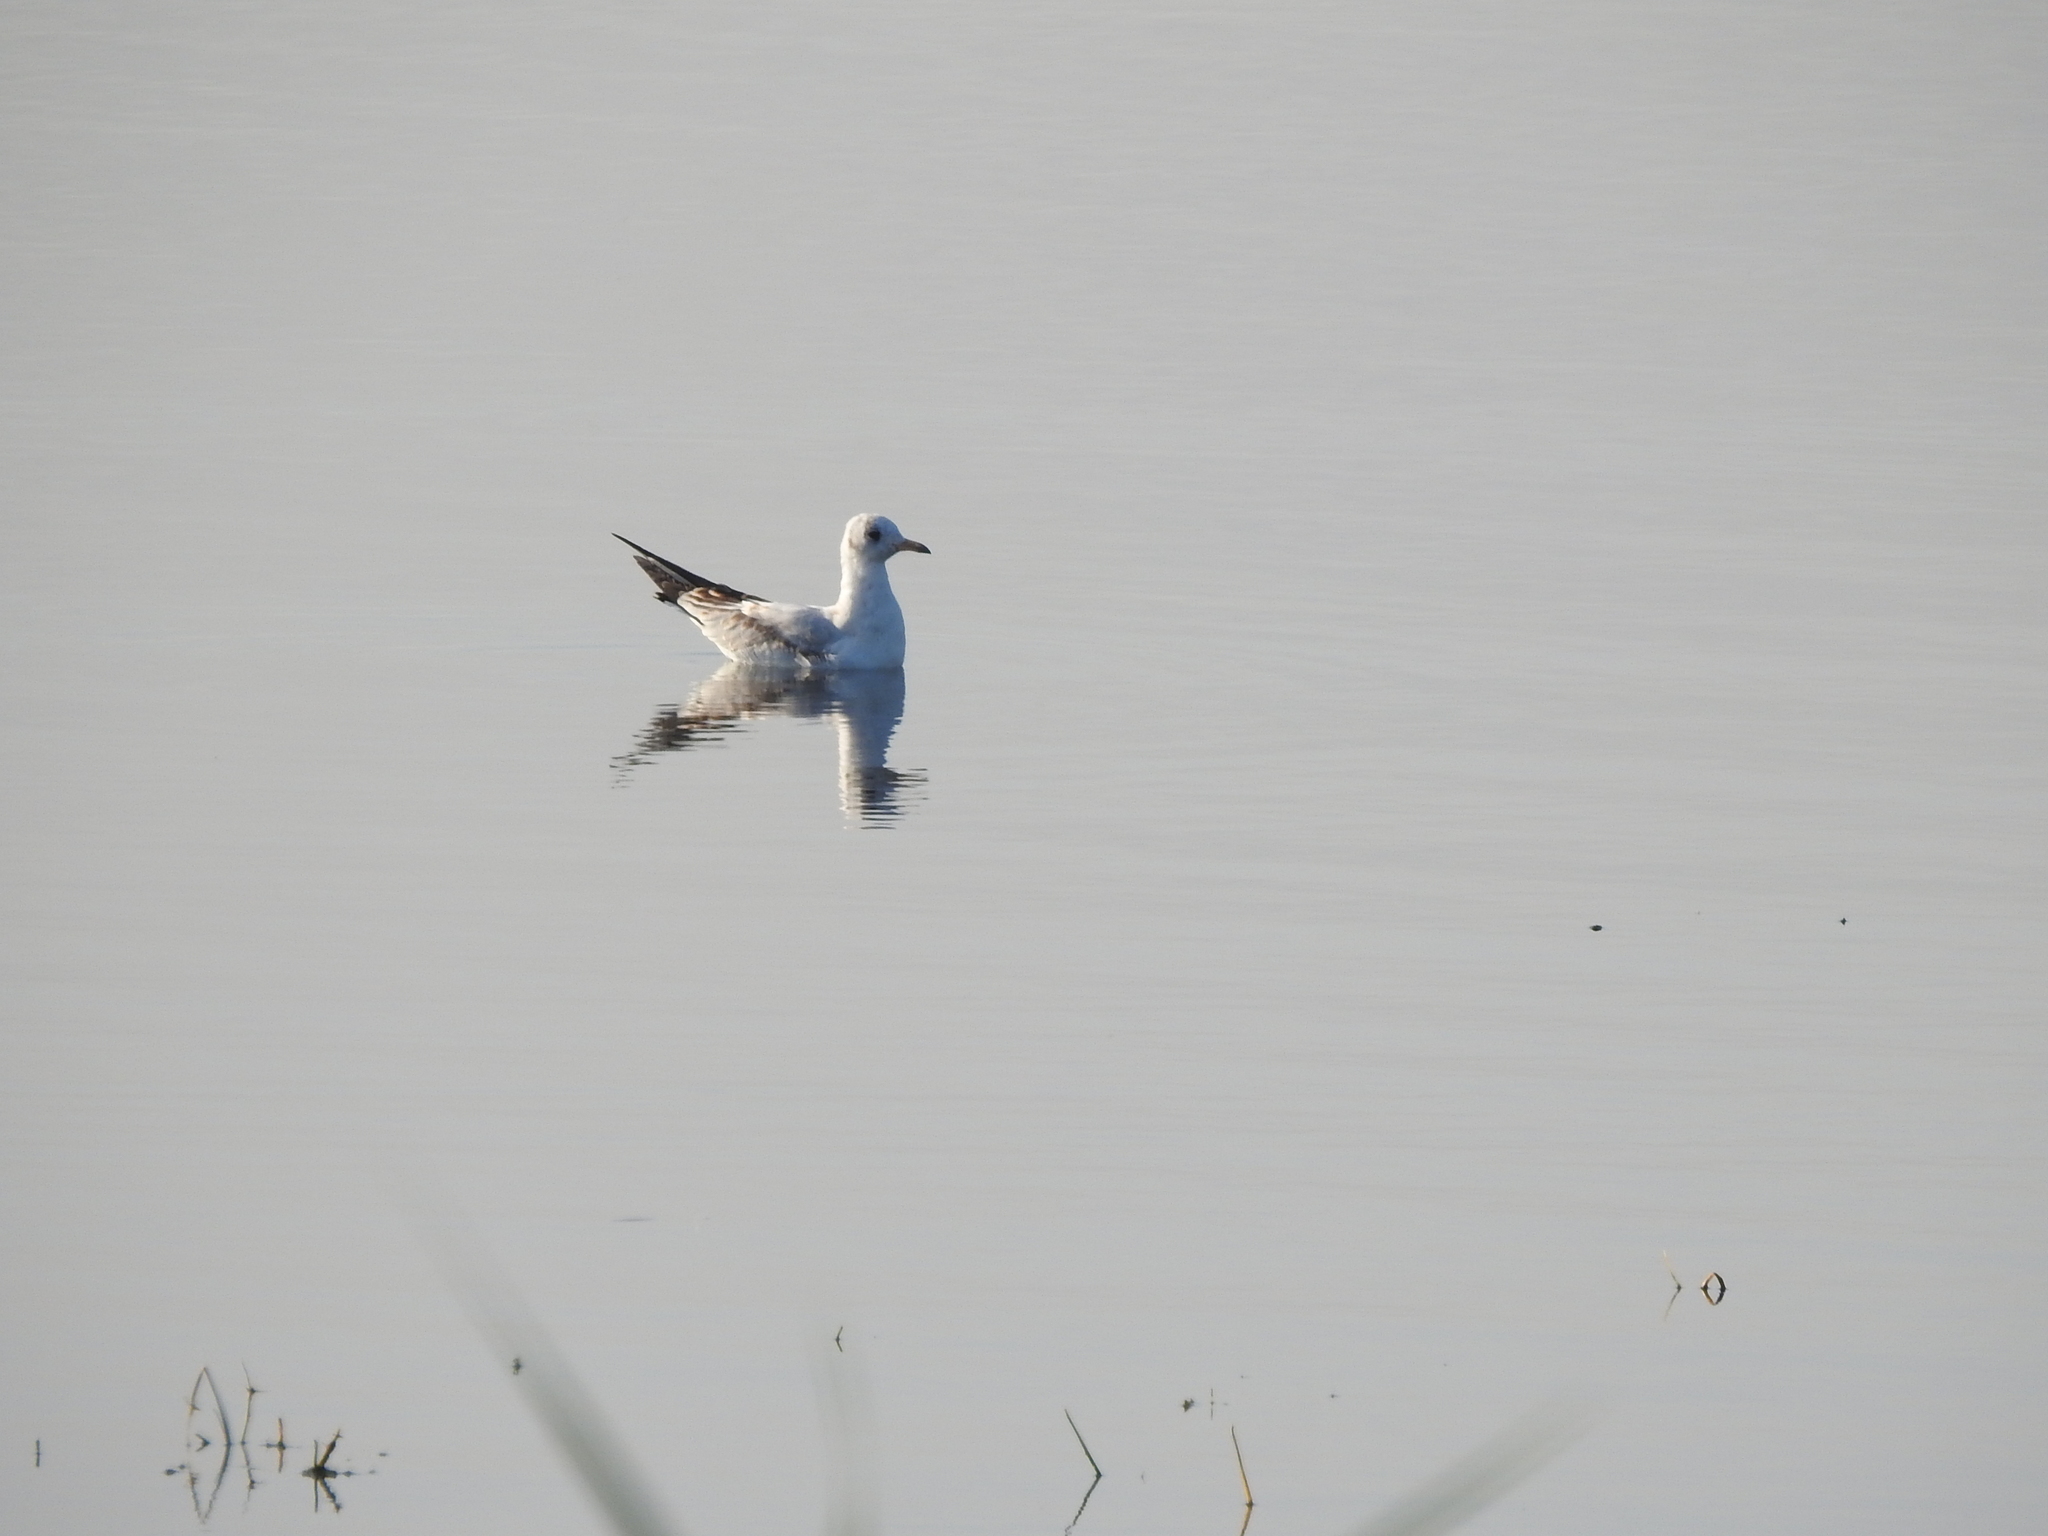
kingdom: Animalia
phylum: Chordata
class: Aves
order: Charadriiformes
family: Laridae
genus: Chroicocephalus
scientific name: Chroicocephalus ridibundus
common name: Black-headed gull
